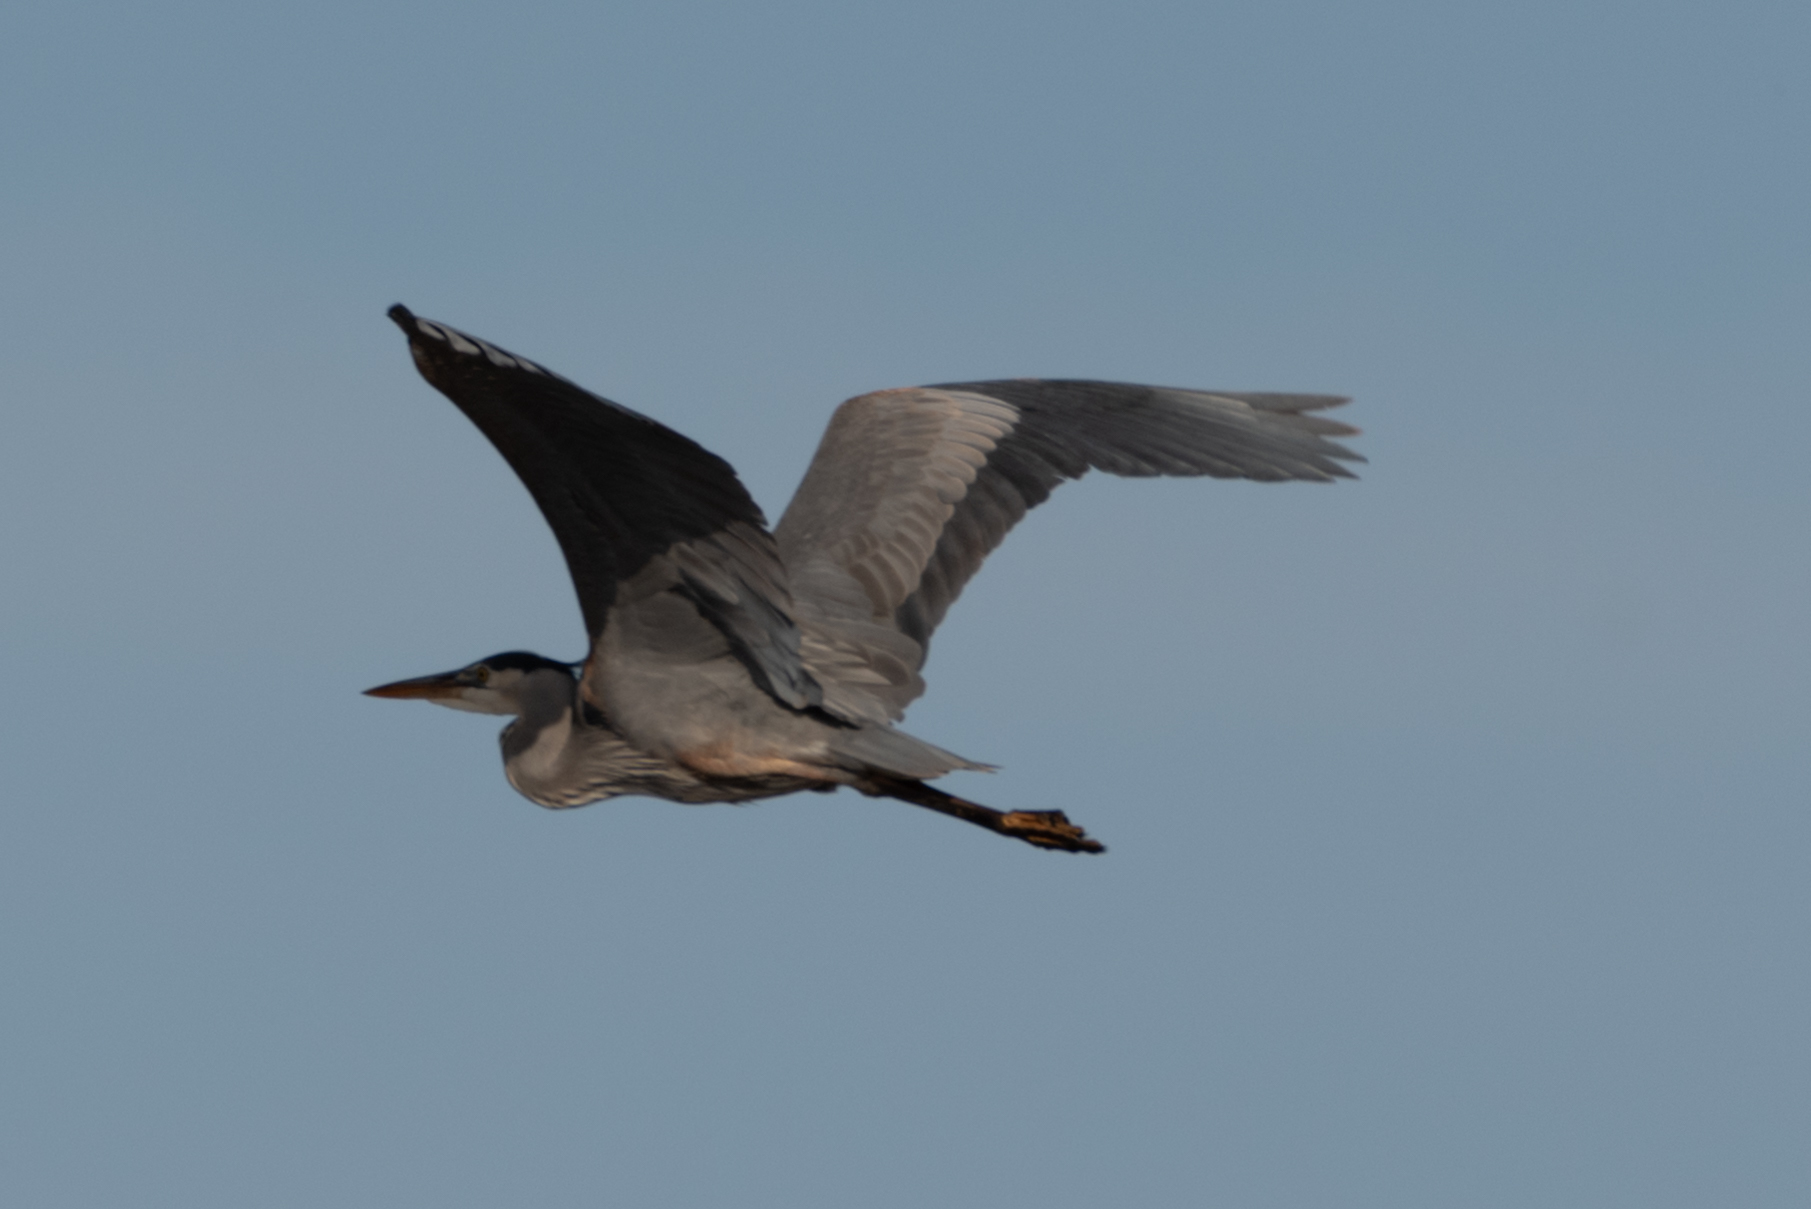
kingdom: Animalia
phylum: Chordata
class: Aves
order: Pelecaniformes
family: Ardeidae
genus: Ardea
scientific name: Ardea herodias
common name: Great blue heron
